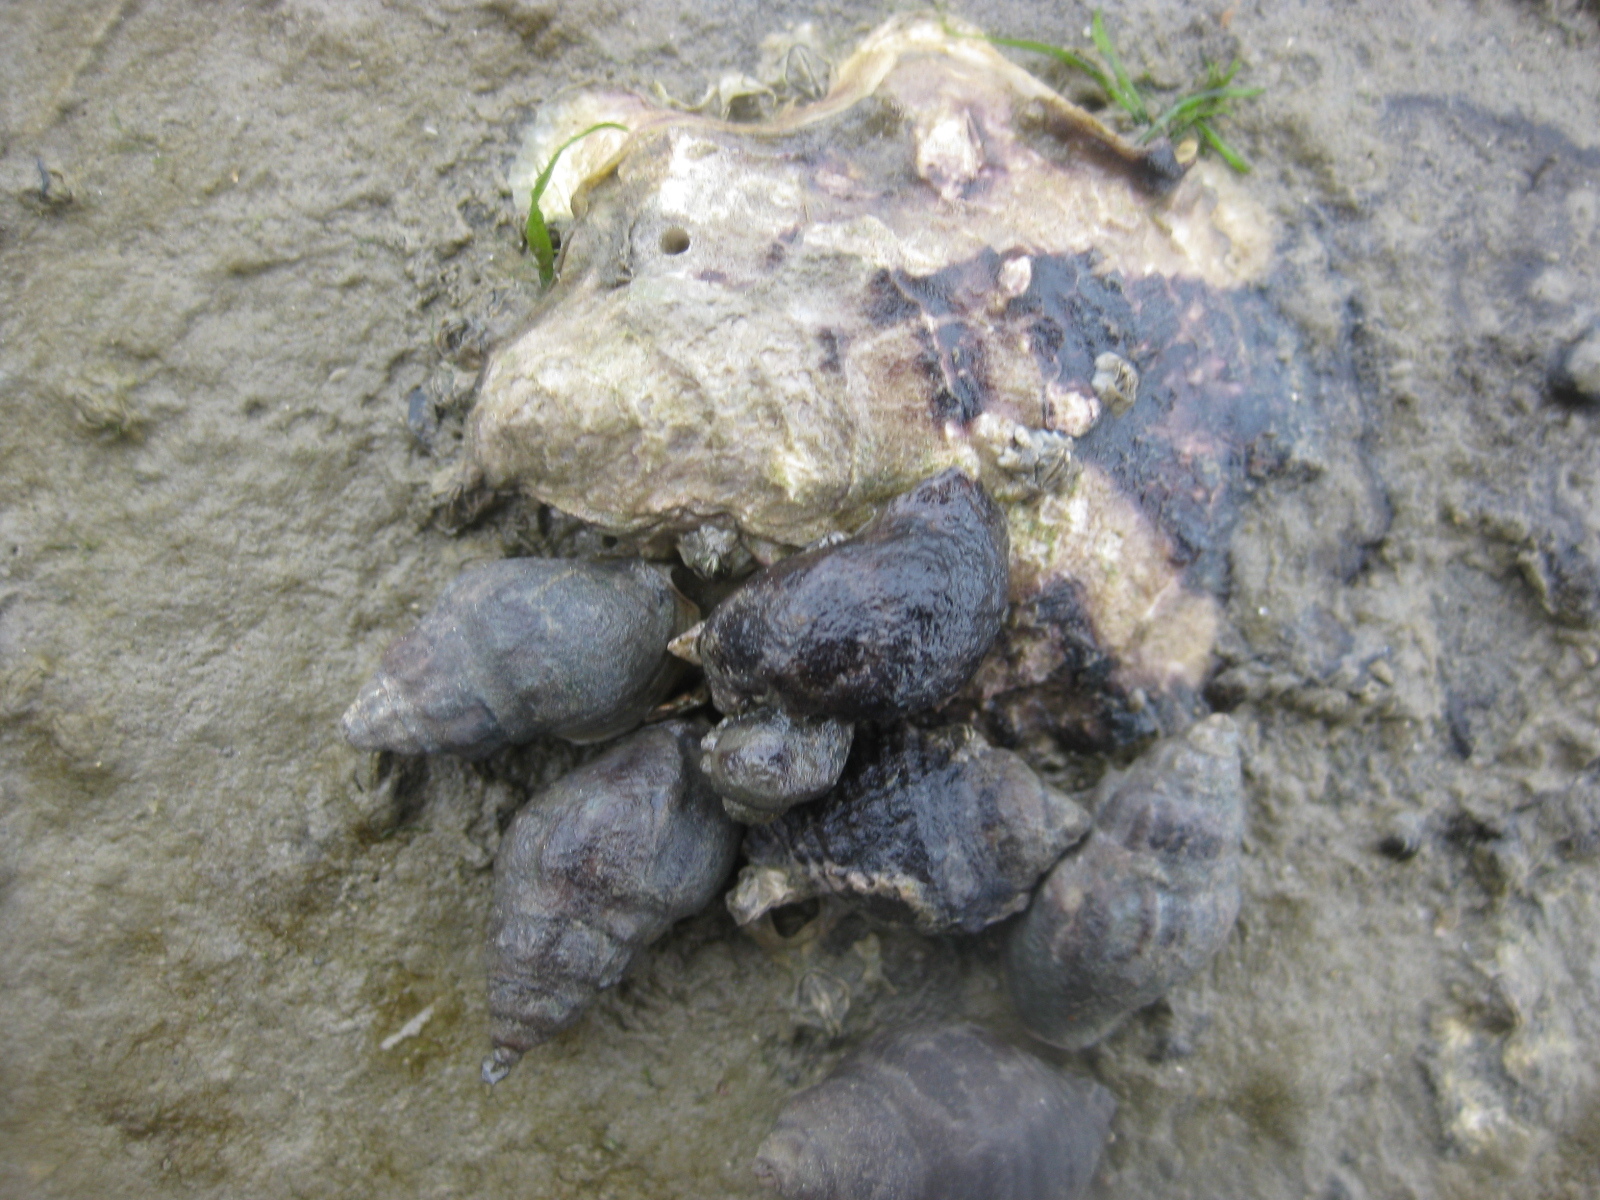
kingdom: Animalia
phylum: Mollusca
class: Gastropoda
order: Neogastropoda
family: Cominellidae
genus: Cominella
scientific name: Cominella glandiformis
